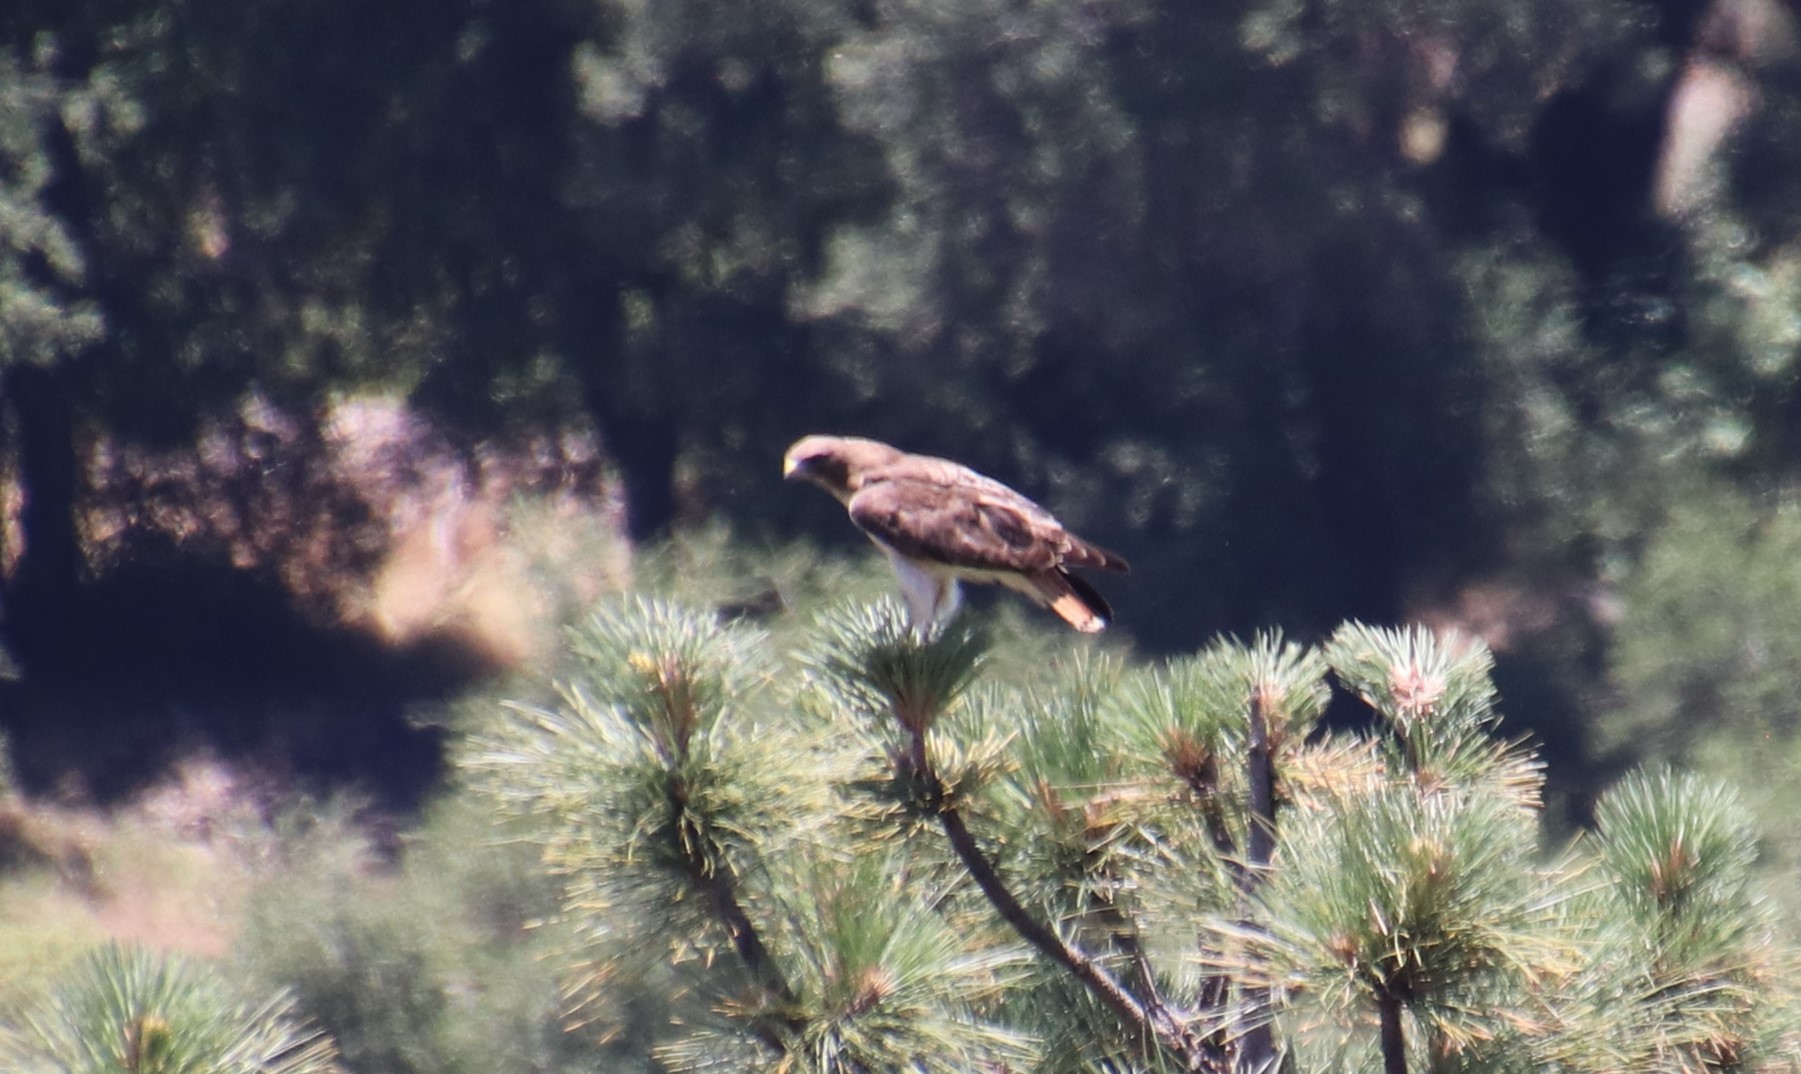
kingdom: Animalia
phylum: Chordata
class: Aves
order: Accipitriformes
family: Accipitridae
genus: Buteo
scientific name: Buteo jamaicensis
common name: Red-tailed hawk
